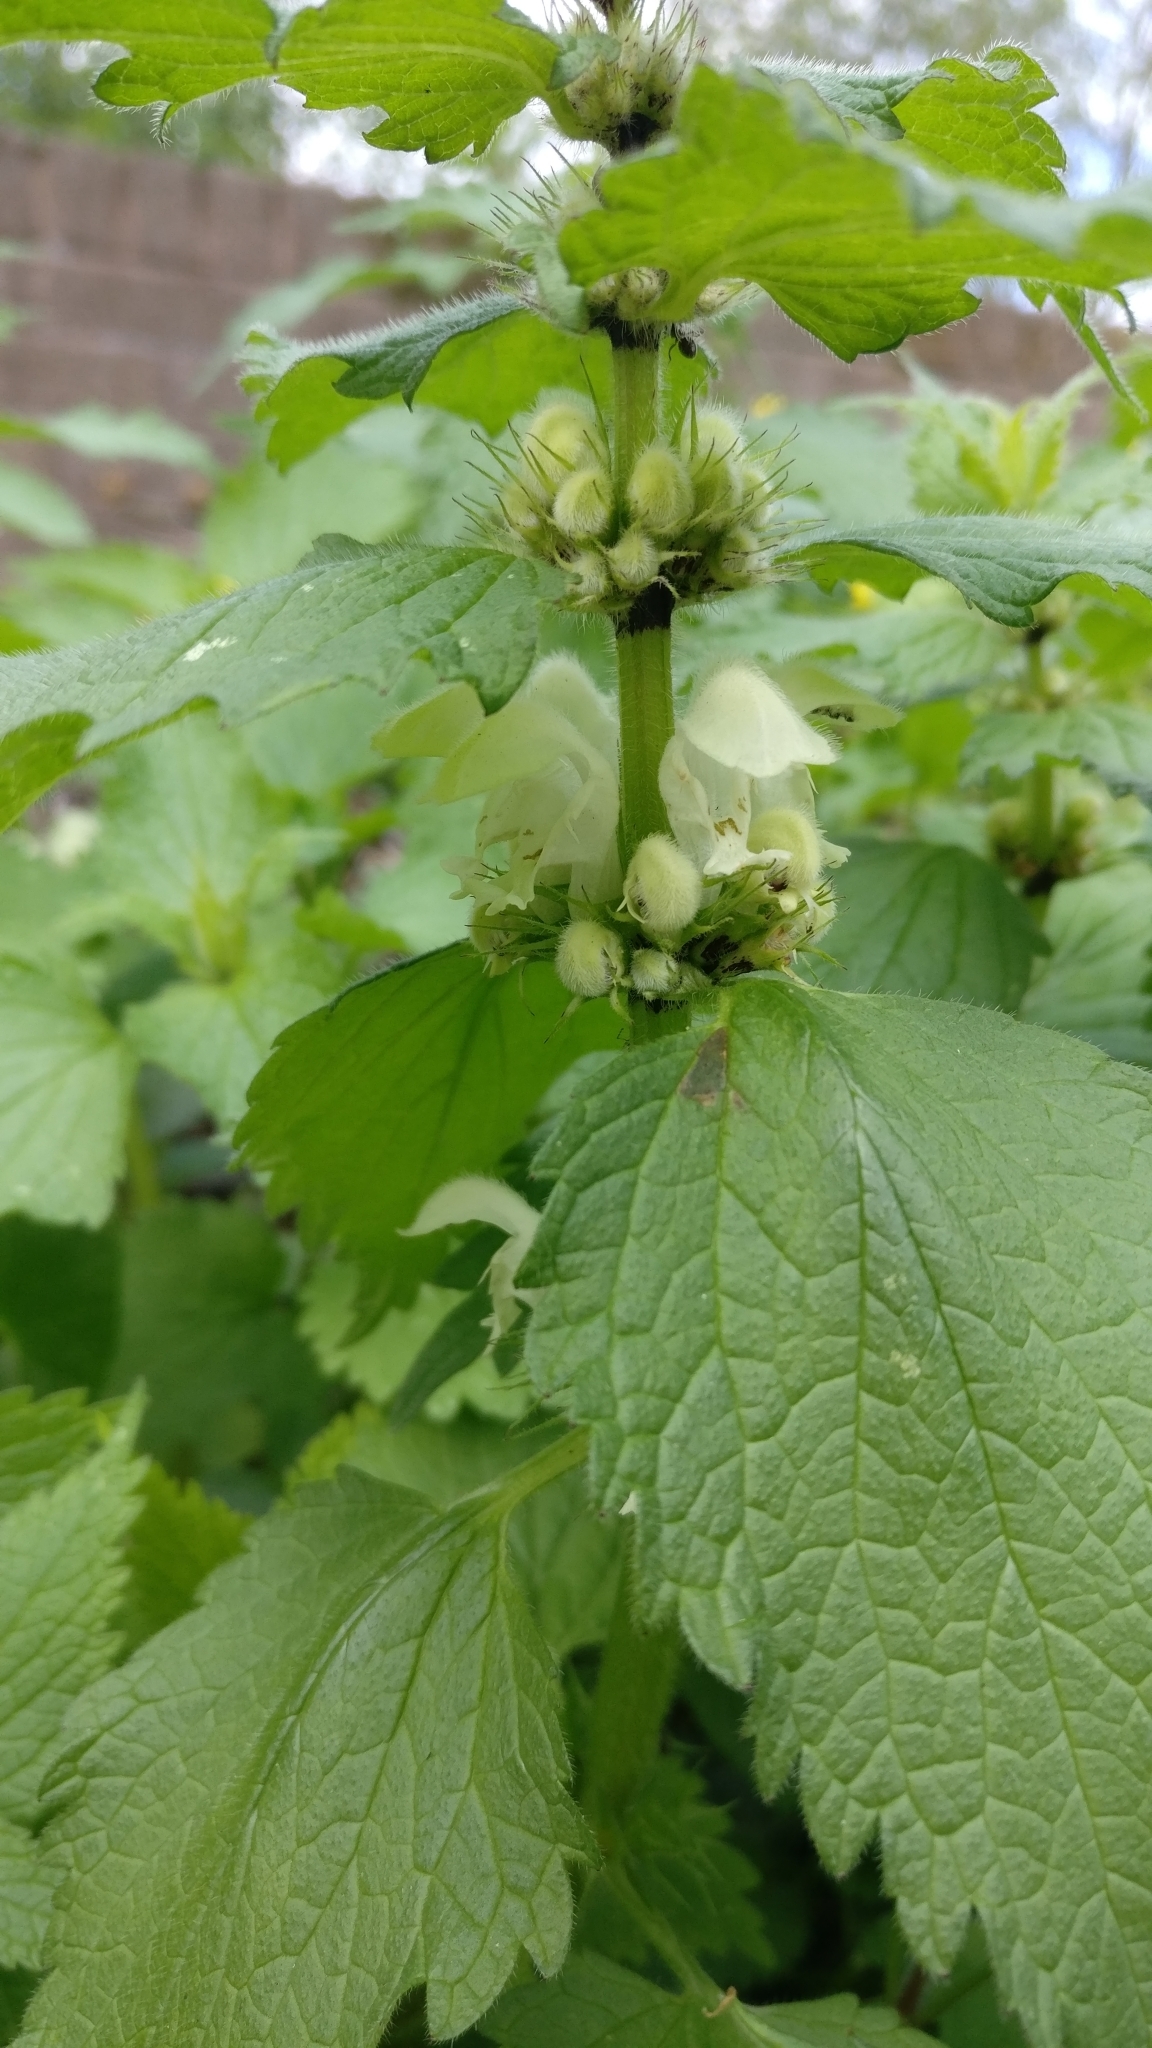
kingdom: Plantae
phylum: Tracheophyta
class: Magnoliopsida
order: Lamiales
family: Lamiaceae
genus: Lamium
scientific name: Lamium album
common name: White dead-nettle
